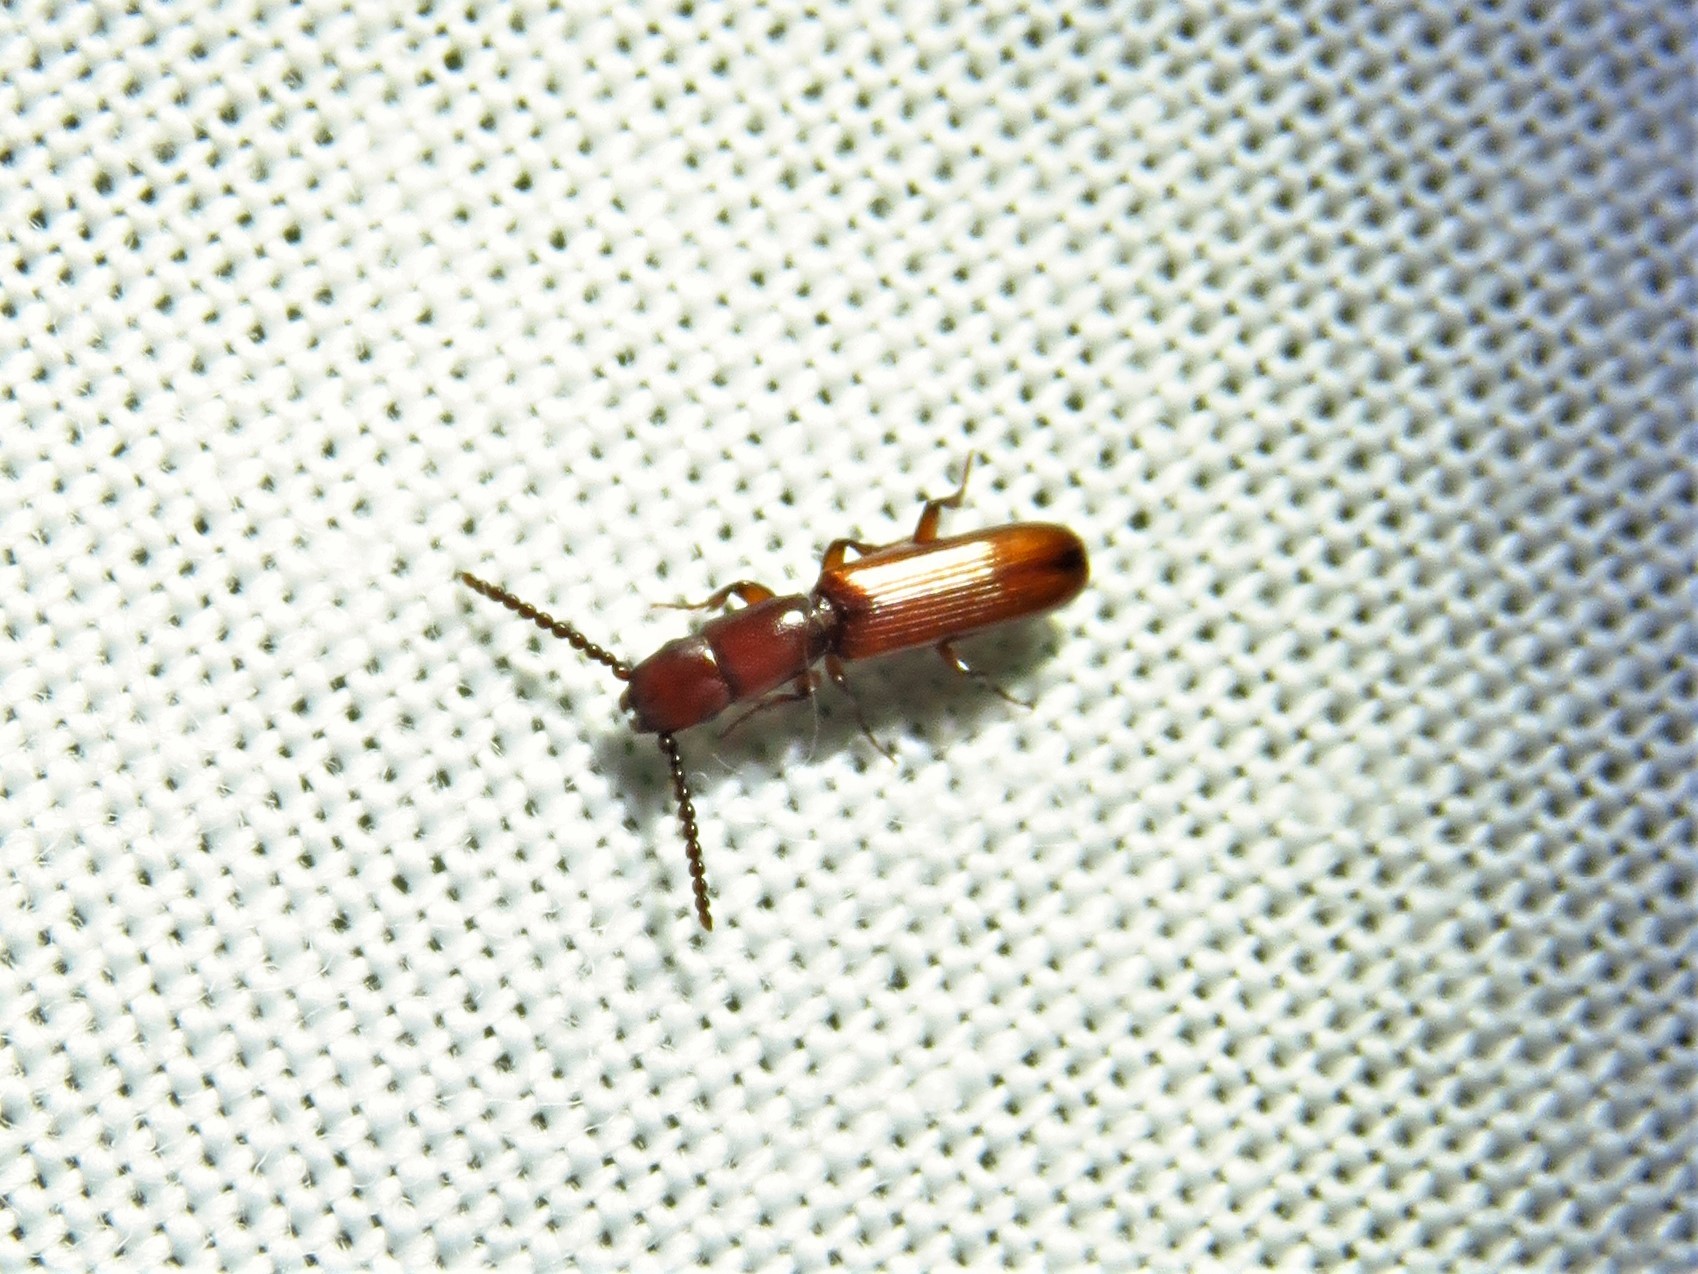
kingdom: Animalia
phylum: Arthropoda
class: Insecta
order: Coleoptera
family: Passandridae
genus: Taphroscelidia
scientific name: Taphroscelidia linearis
